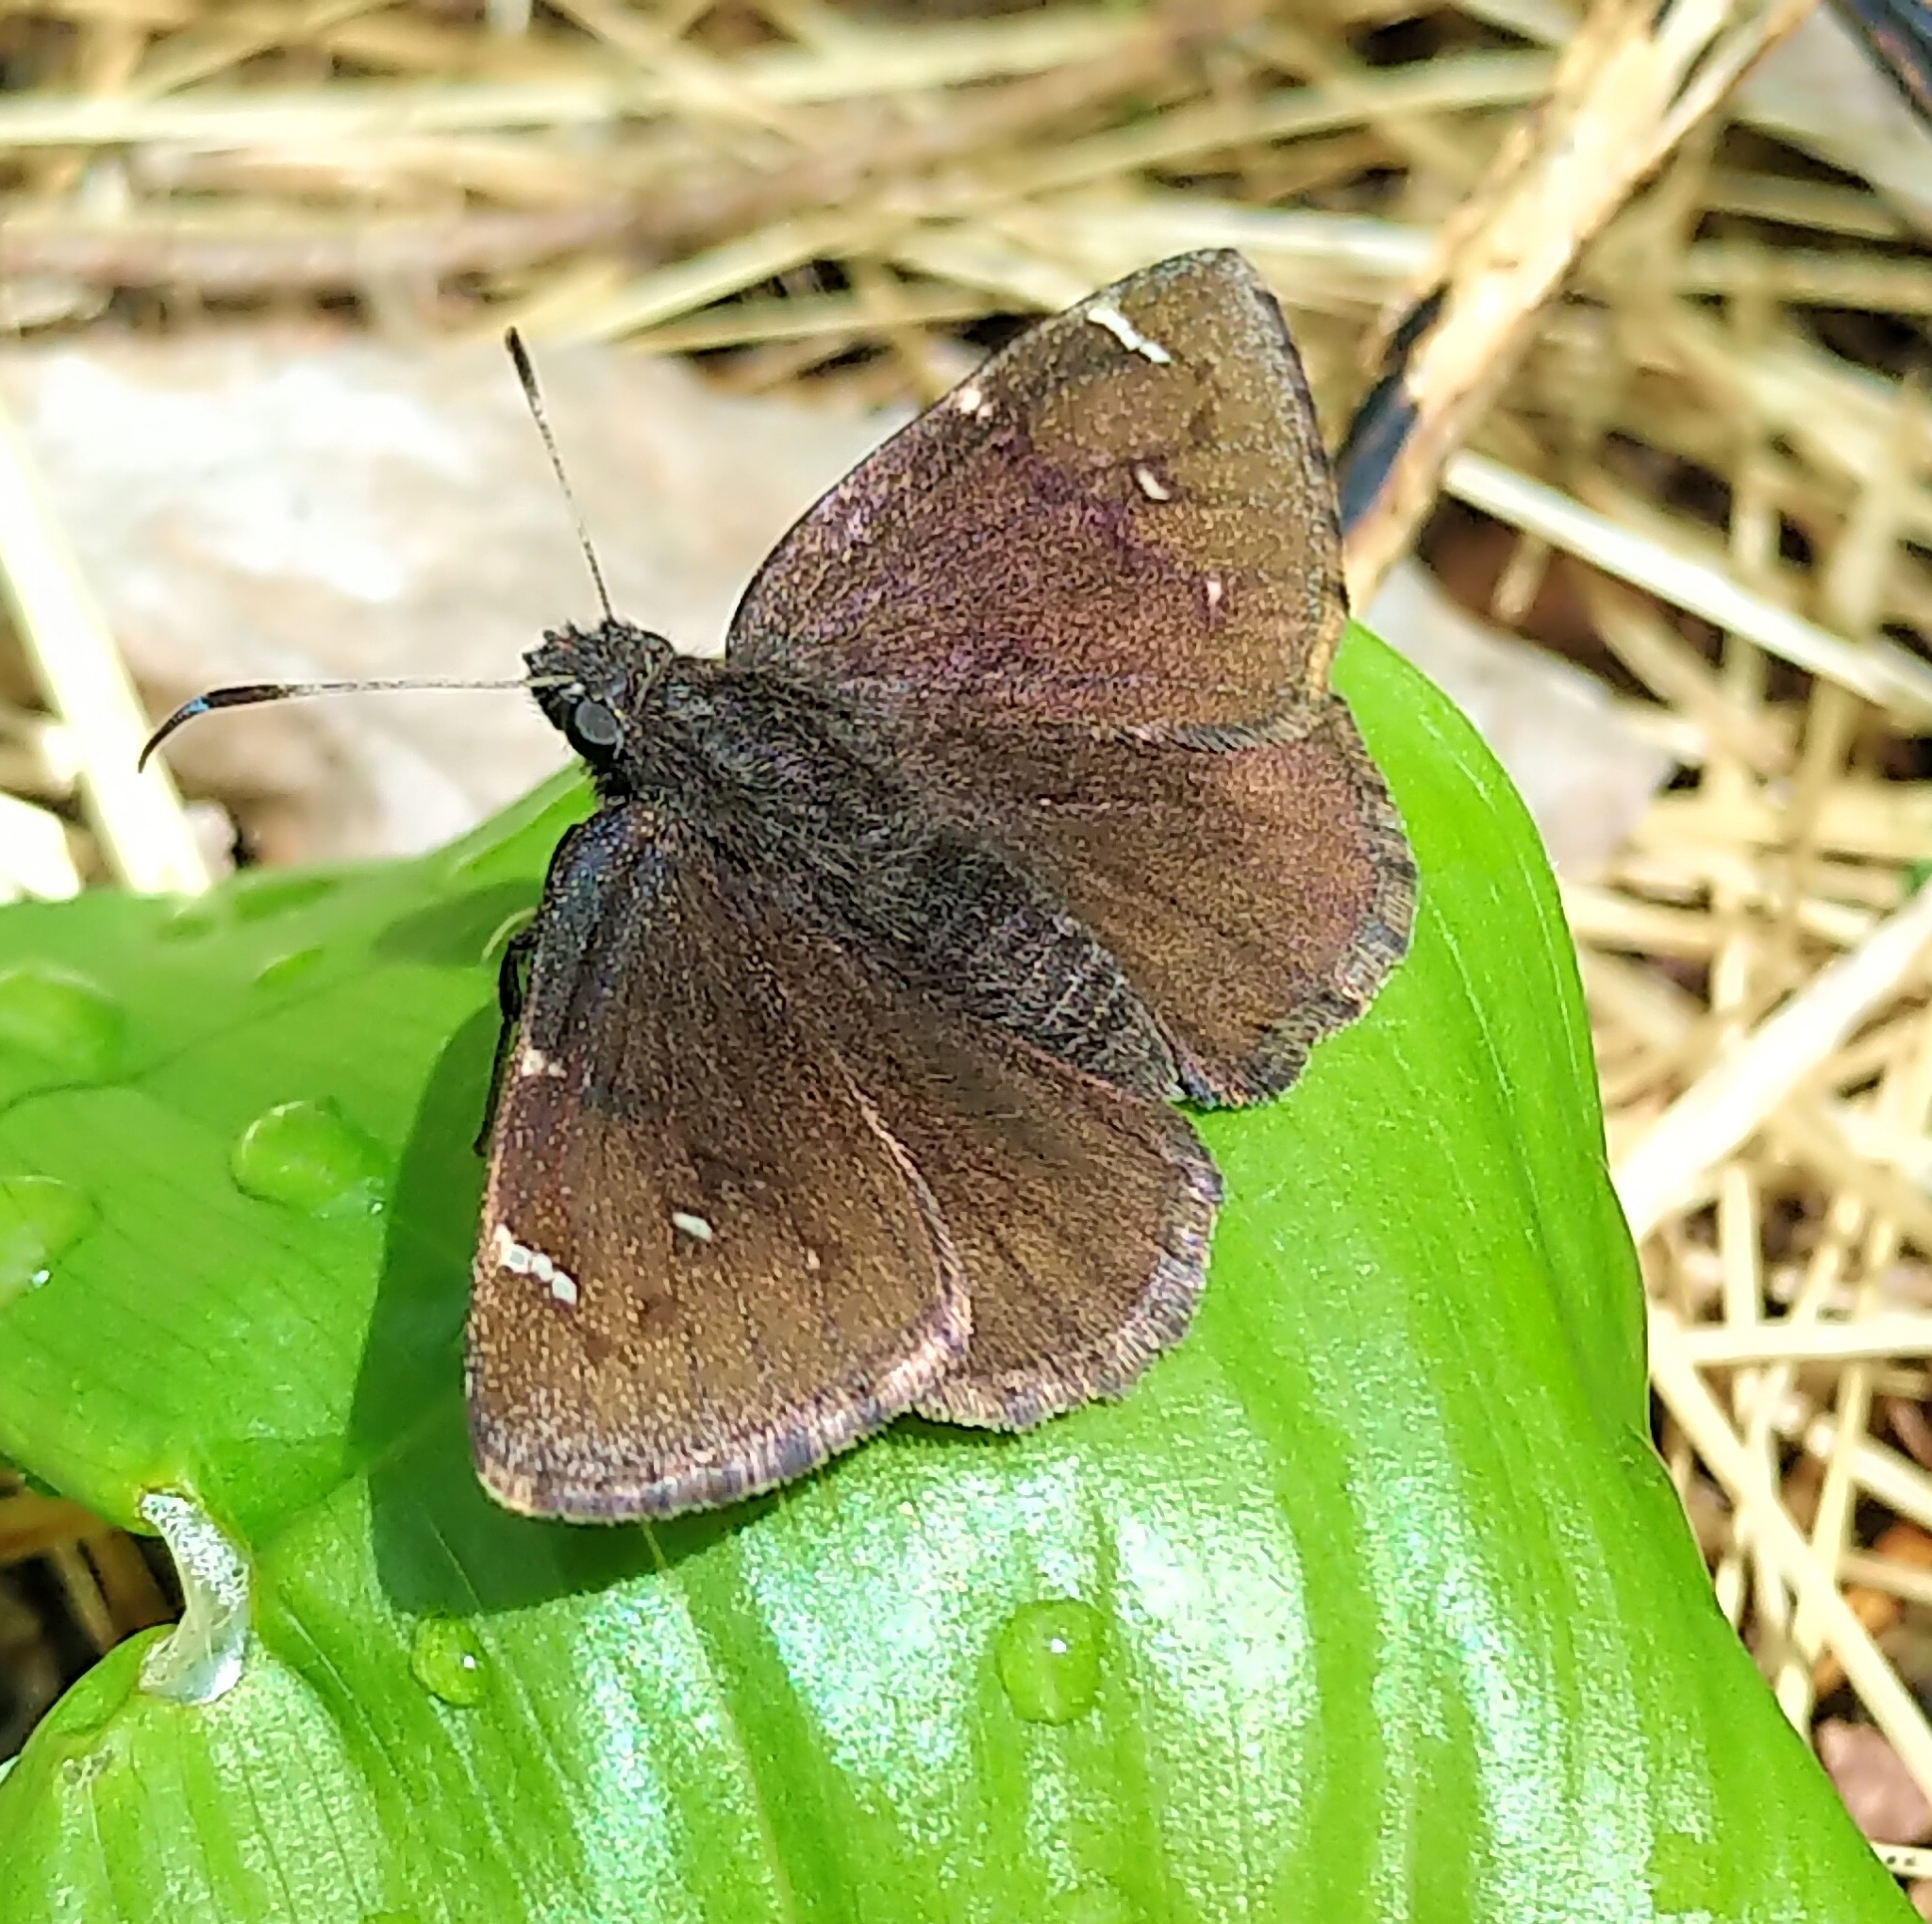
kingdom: Animalia
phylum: Arthropoda
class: Insecta
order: Lepidoptera
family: Hesperiidae
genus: Thorybes
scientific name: Thorybes pylades
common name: Northern cloudywing
